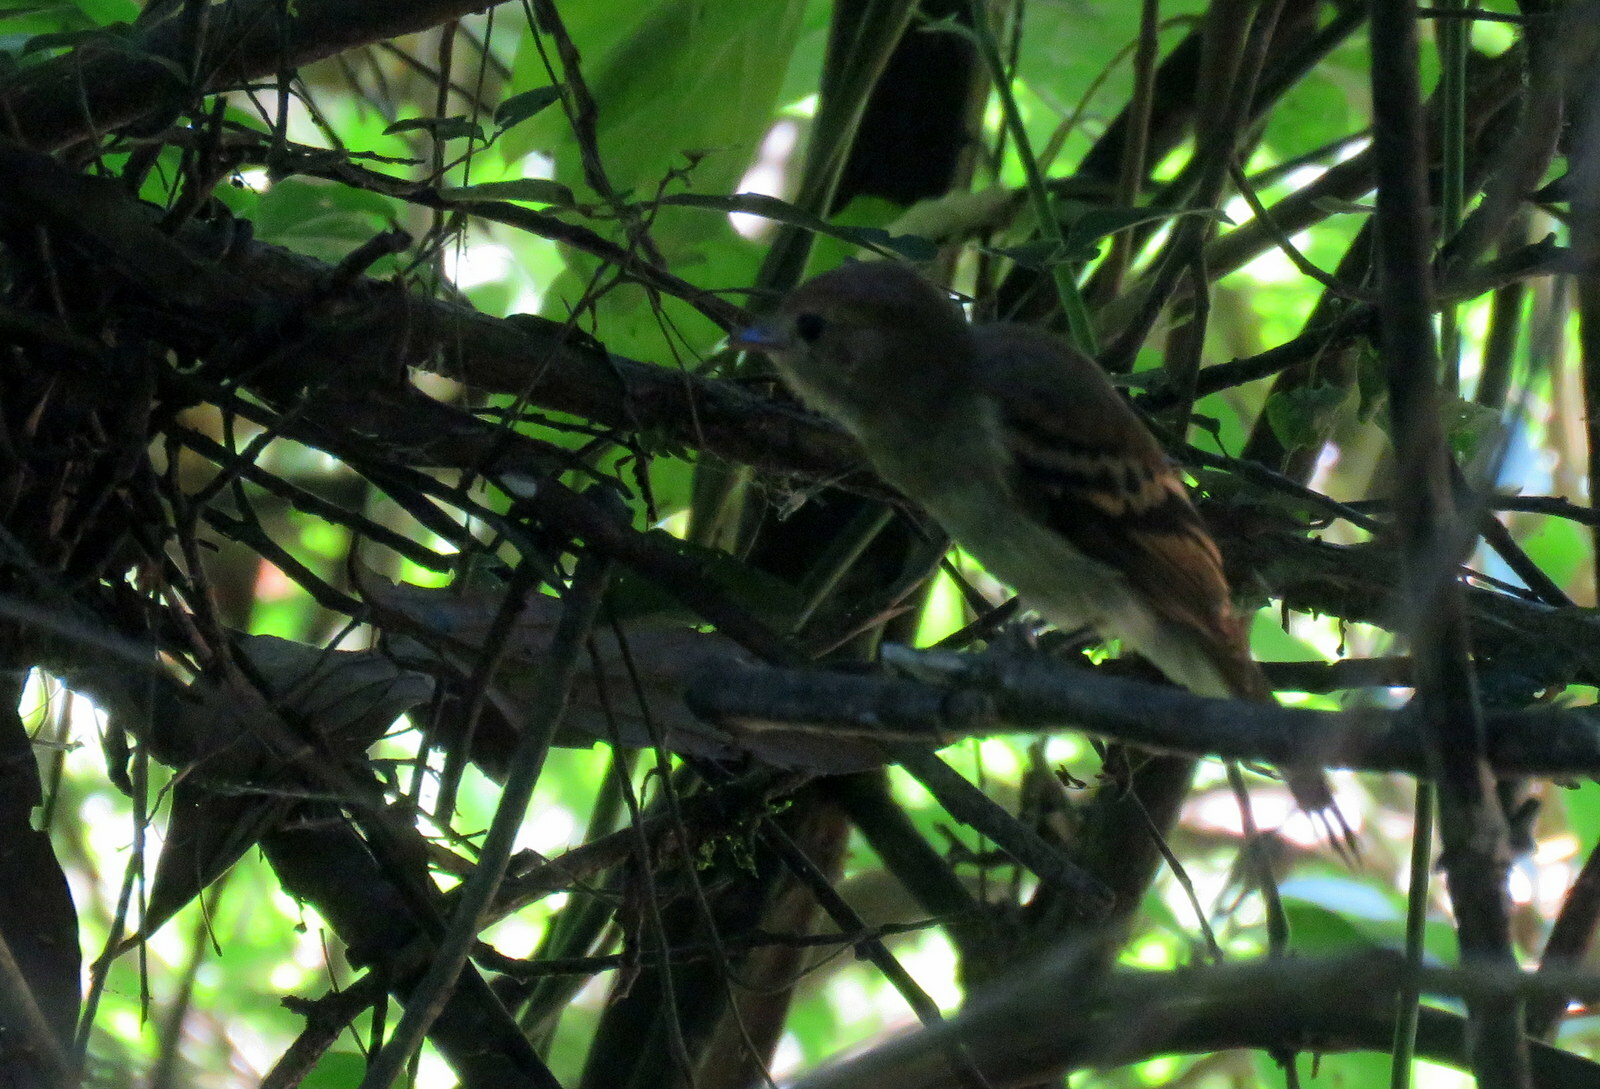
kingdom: Animalia
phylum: Chordata
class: Aves
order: Passeriformes
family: Tyrannidae
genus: Lathrotriccus
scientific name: Lathrotriccus euleri
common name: Euler's flycatcher
